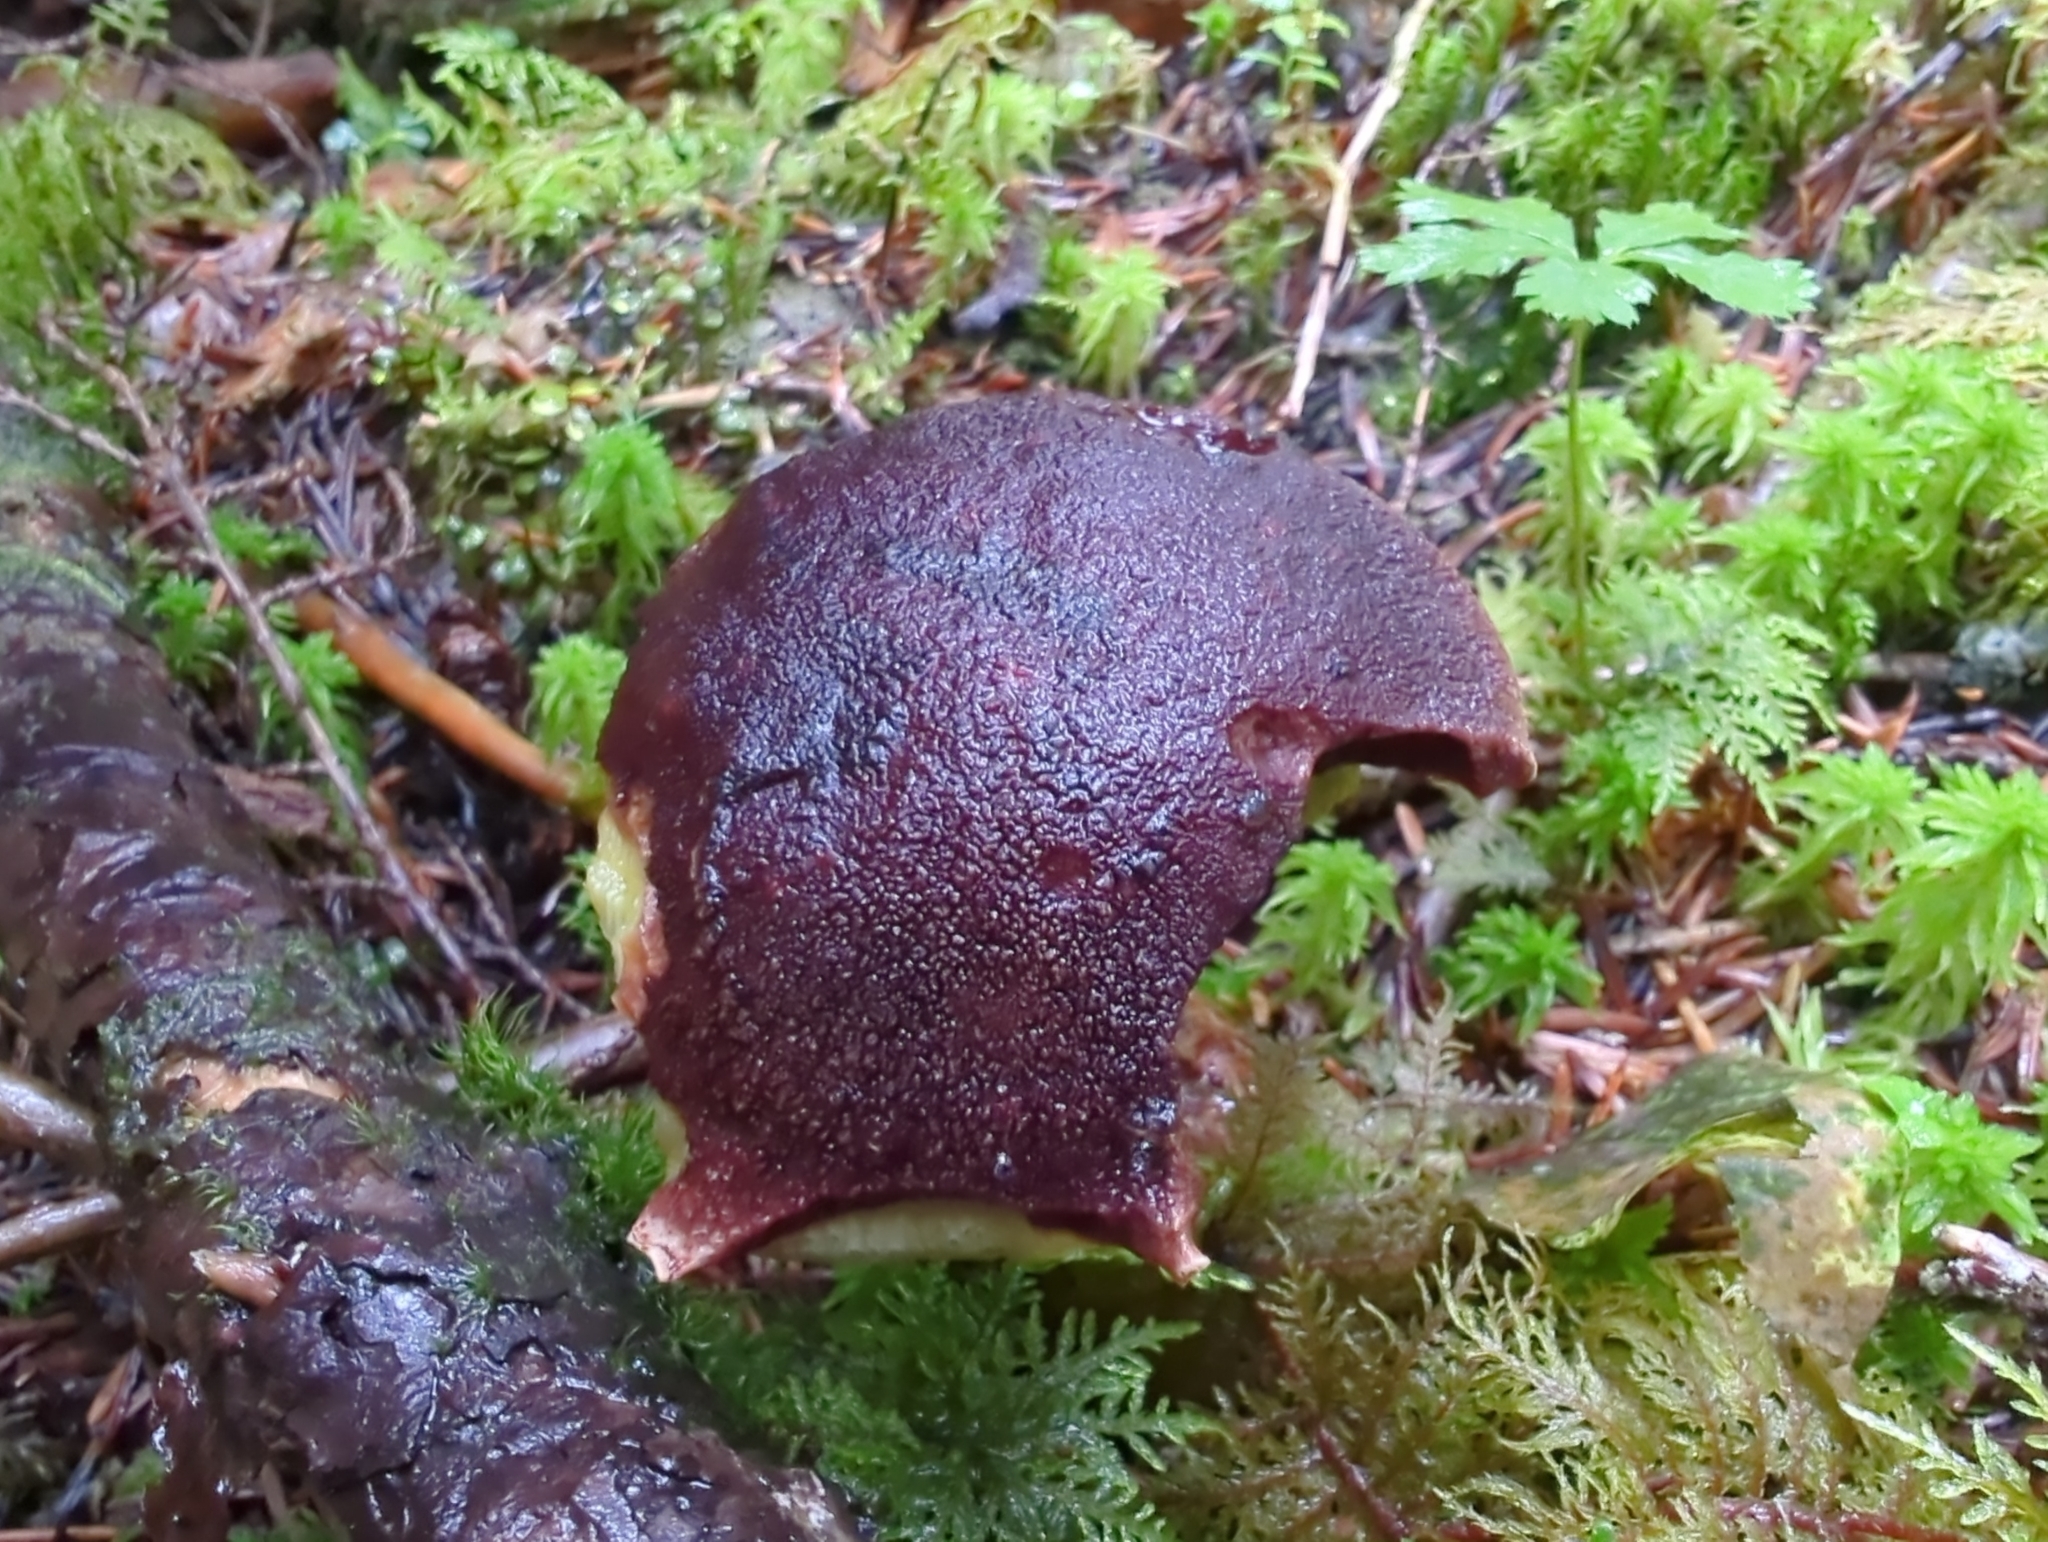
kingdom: Fungi
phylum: Basidiomycota
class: Agaricomycetes
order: Boletales
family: Boletaceae
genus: Aureoboletus
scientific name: Aureoboletus mirabilis
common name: Admirable bolete
